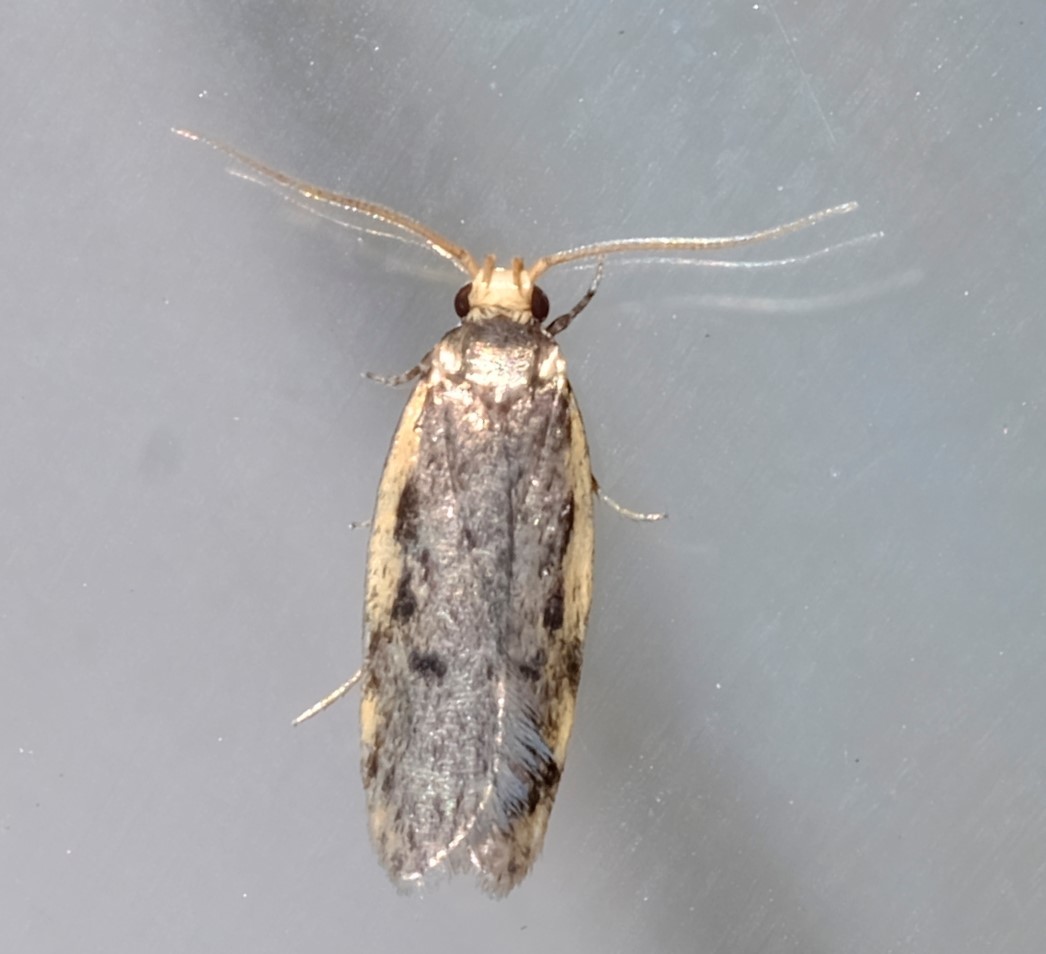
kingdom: Animalia
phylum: Arthropoda
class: Insecta
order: Lepidoptera
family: Oecophoridae
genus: Hoplostega
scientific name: Hoplostega ochroma
